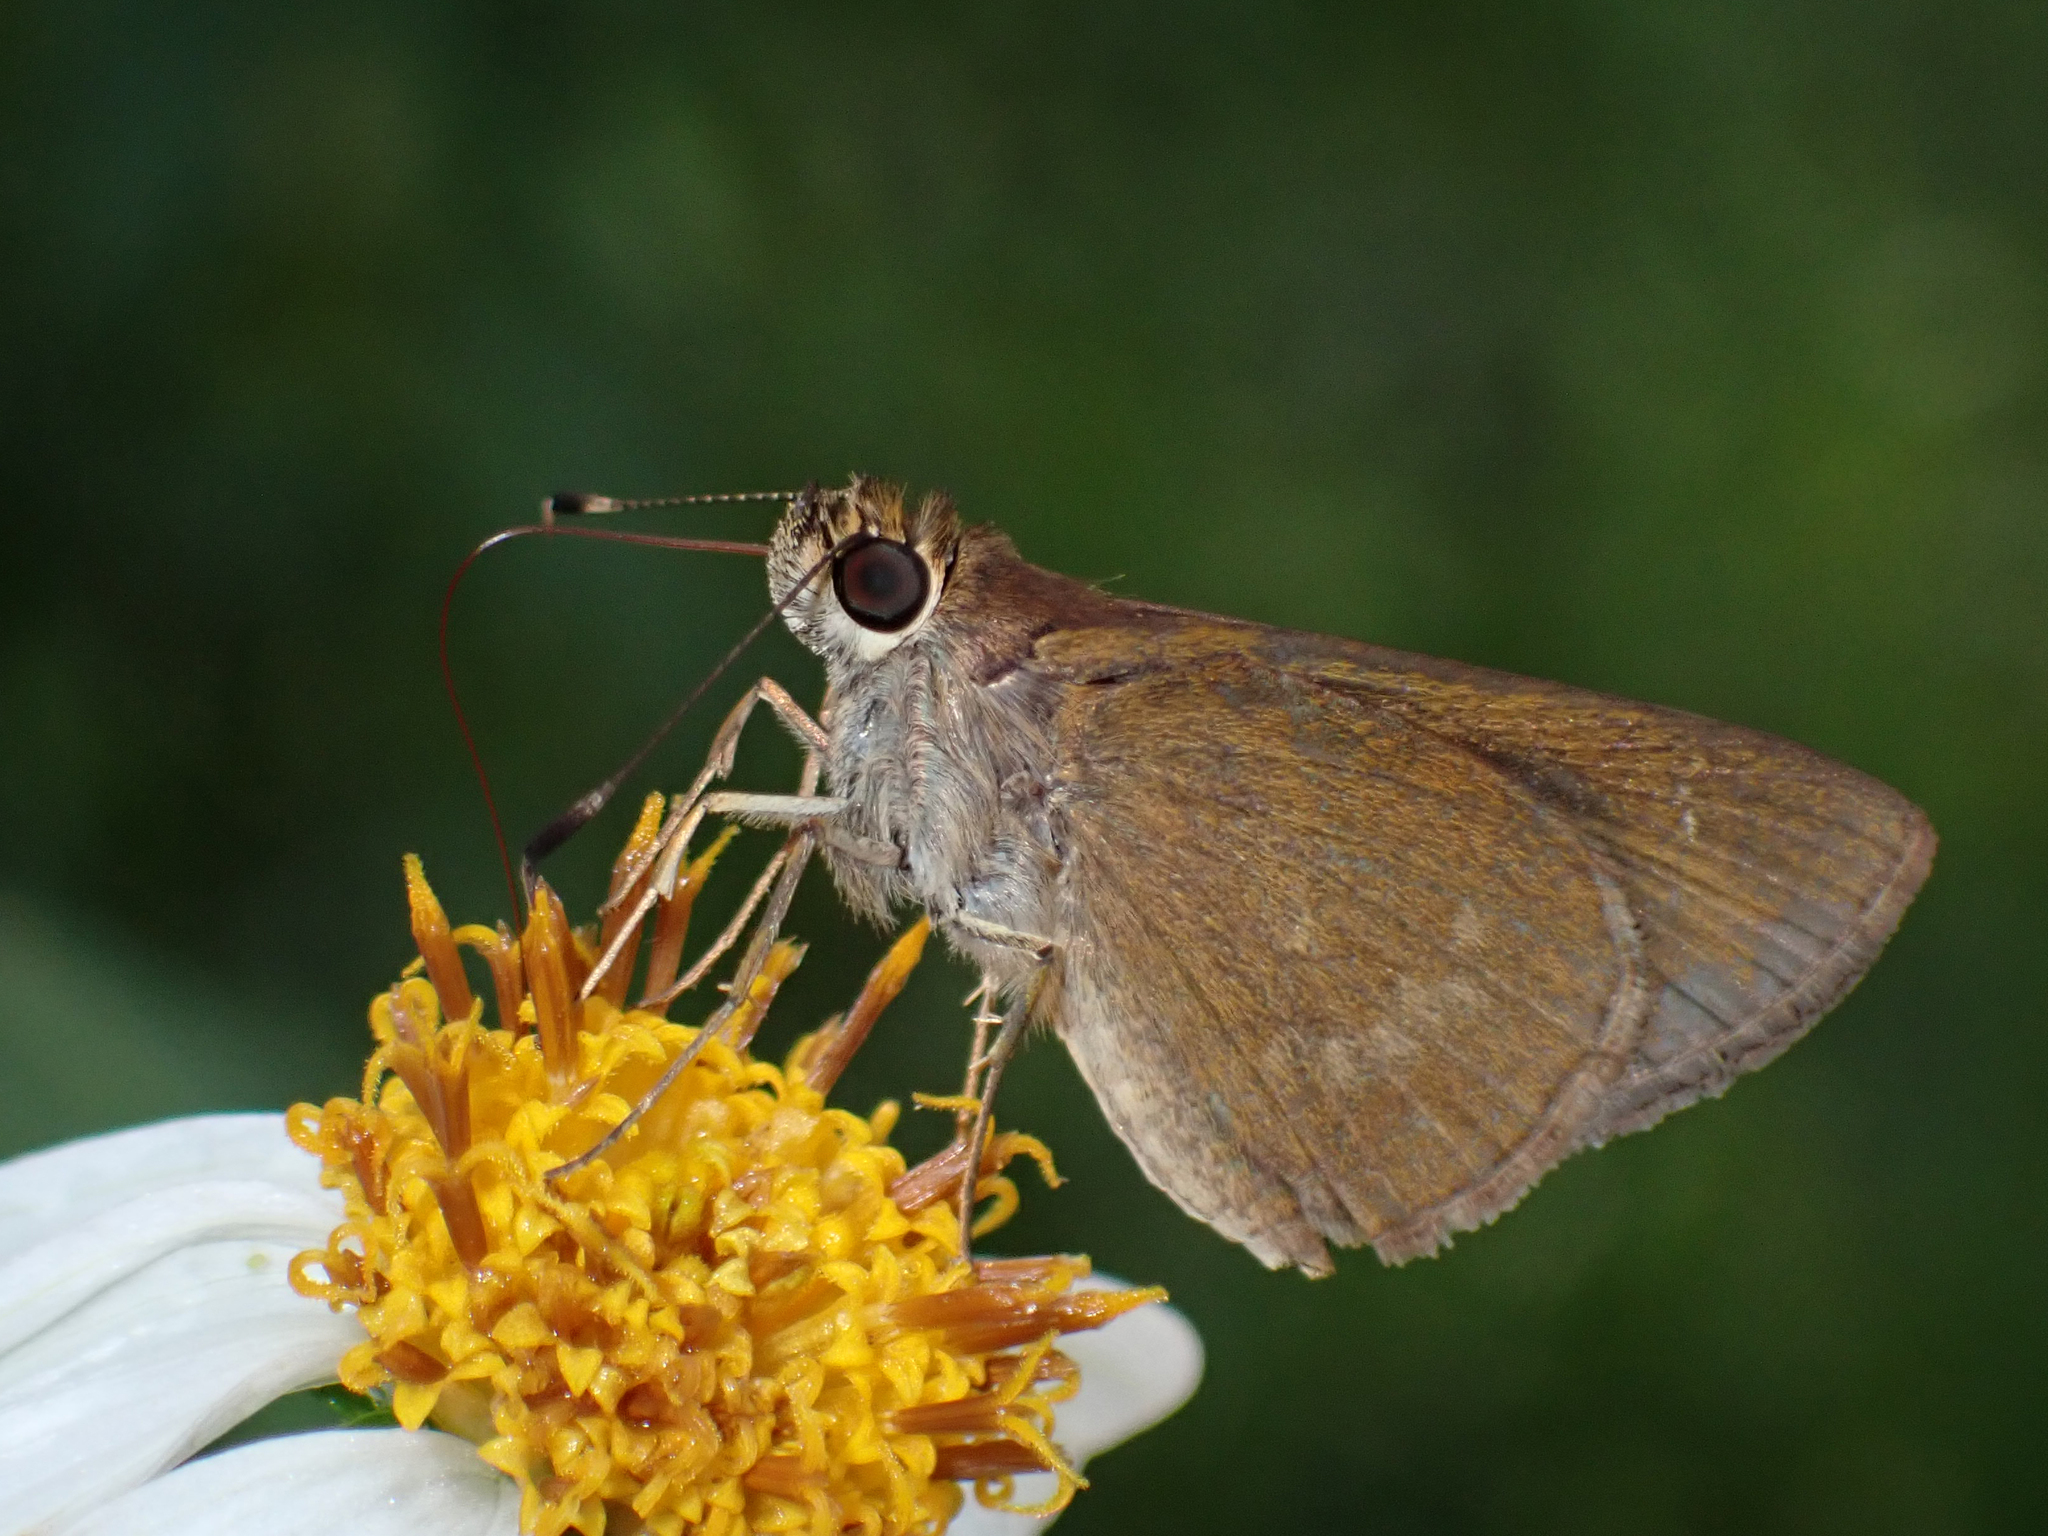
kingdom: Animalia
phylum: Arthropoda
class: Insecta
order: Lepidoptera
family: Hesperiidae
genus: Cymaenes
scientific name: Cymaenes tripunctus
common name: Dingy dotted skipper
